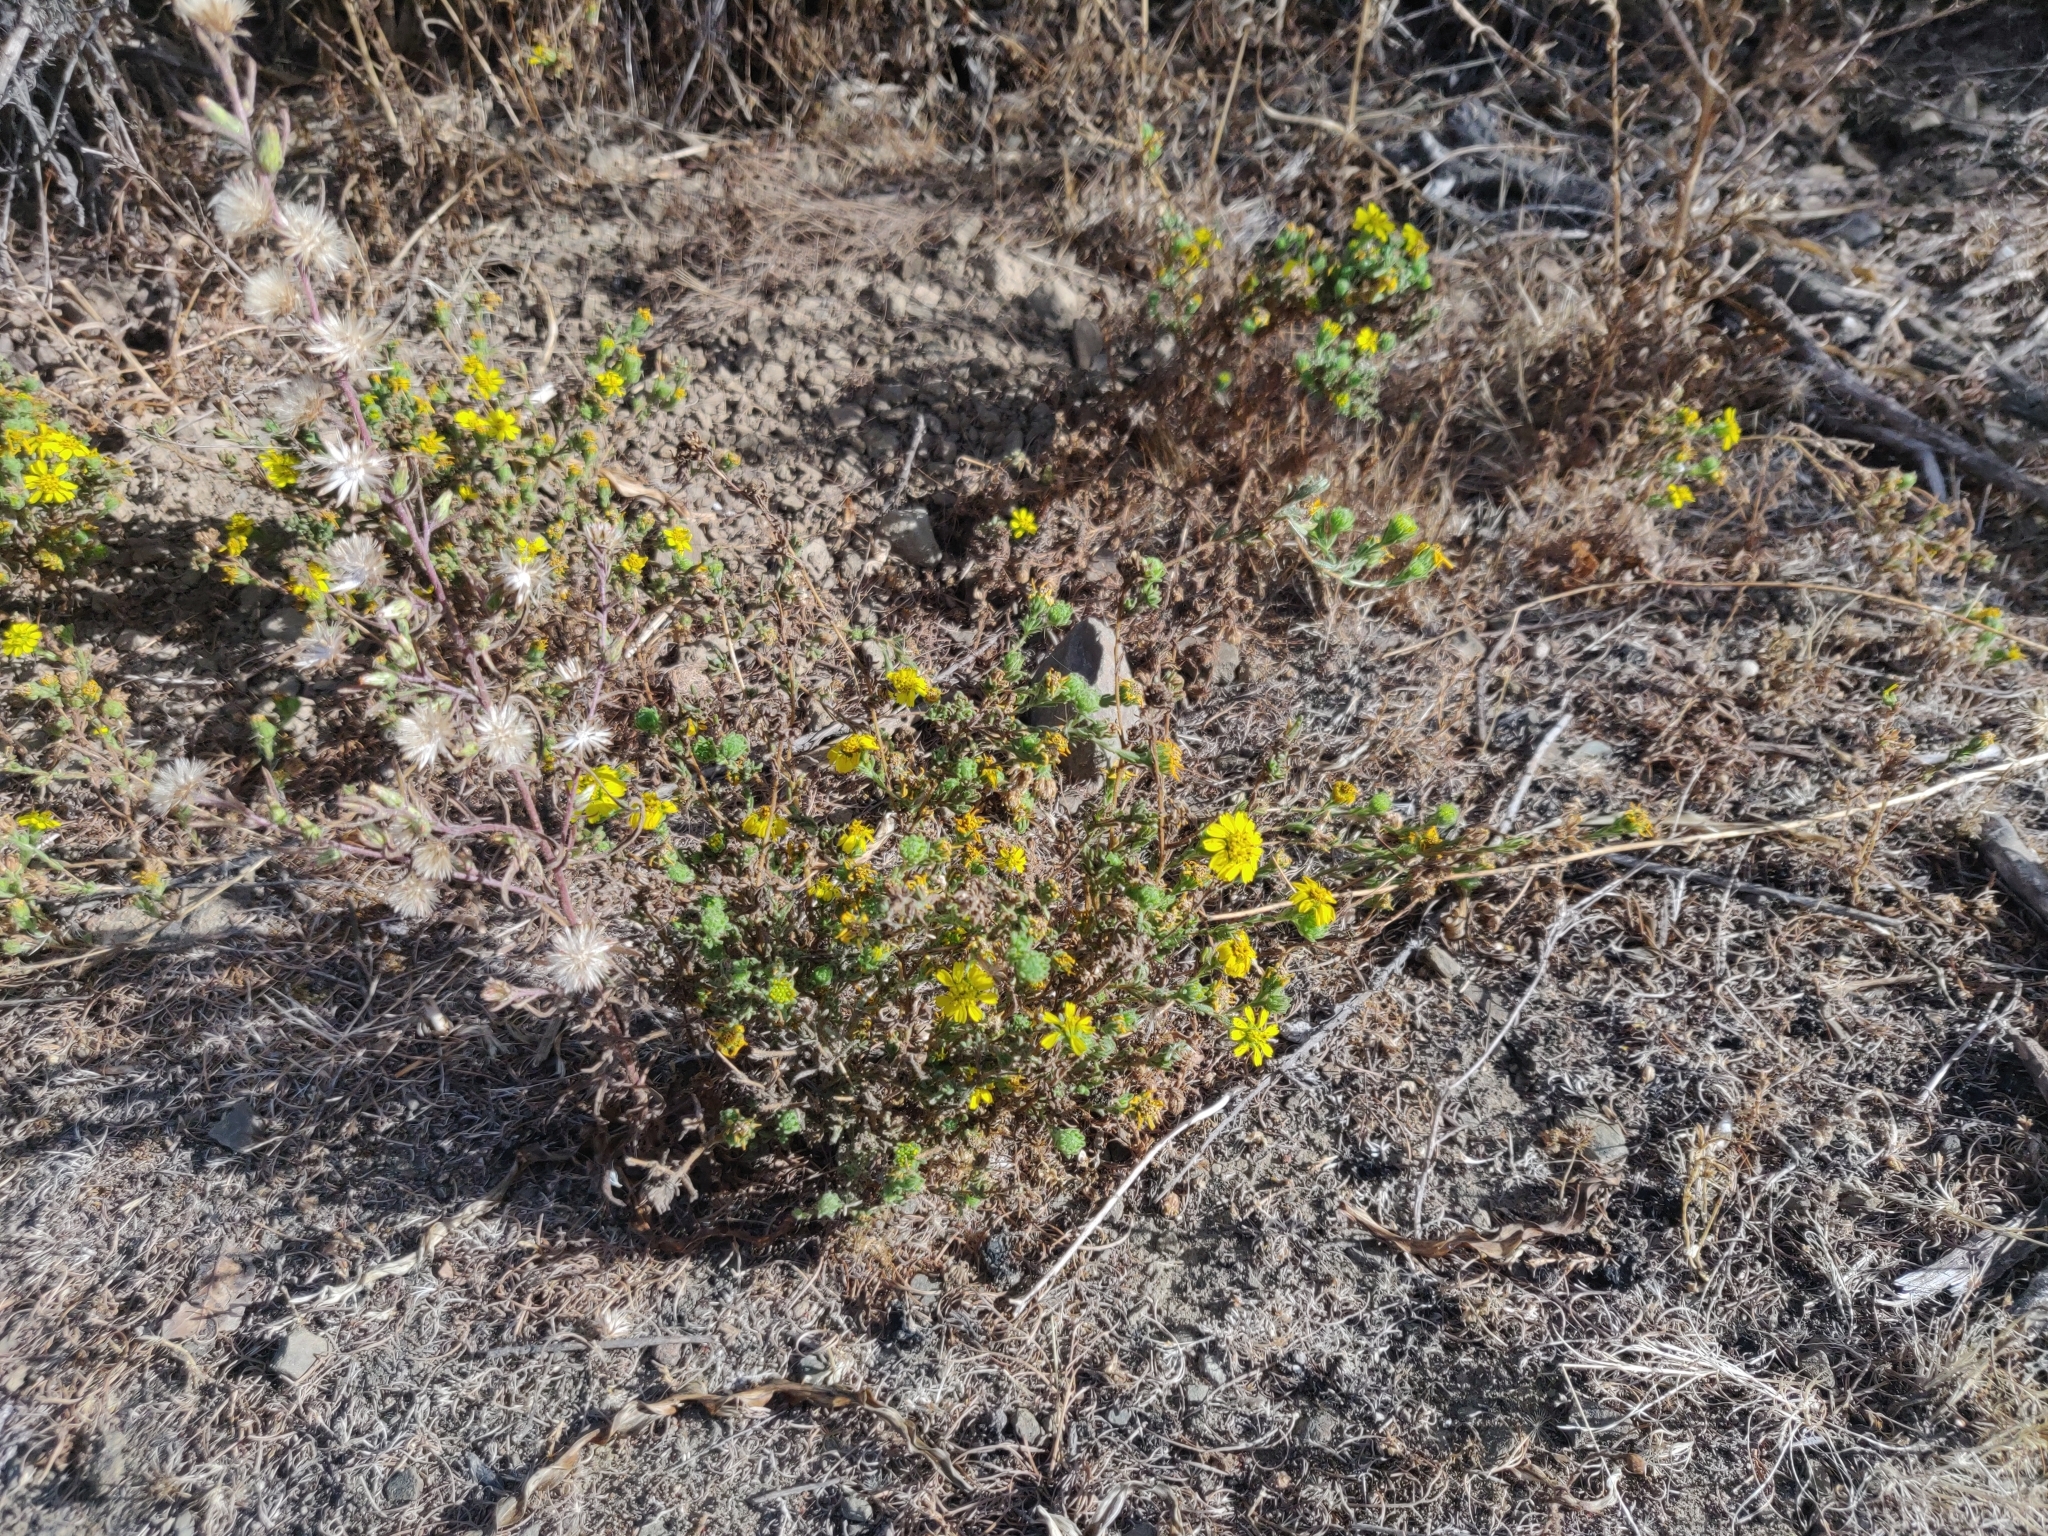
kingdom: Plantae
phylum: Tracheophyta
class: Magnoliopsida
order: Asterales
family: Asteraceae
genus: Deinandra
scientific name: Deinandra corymbosa
